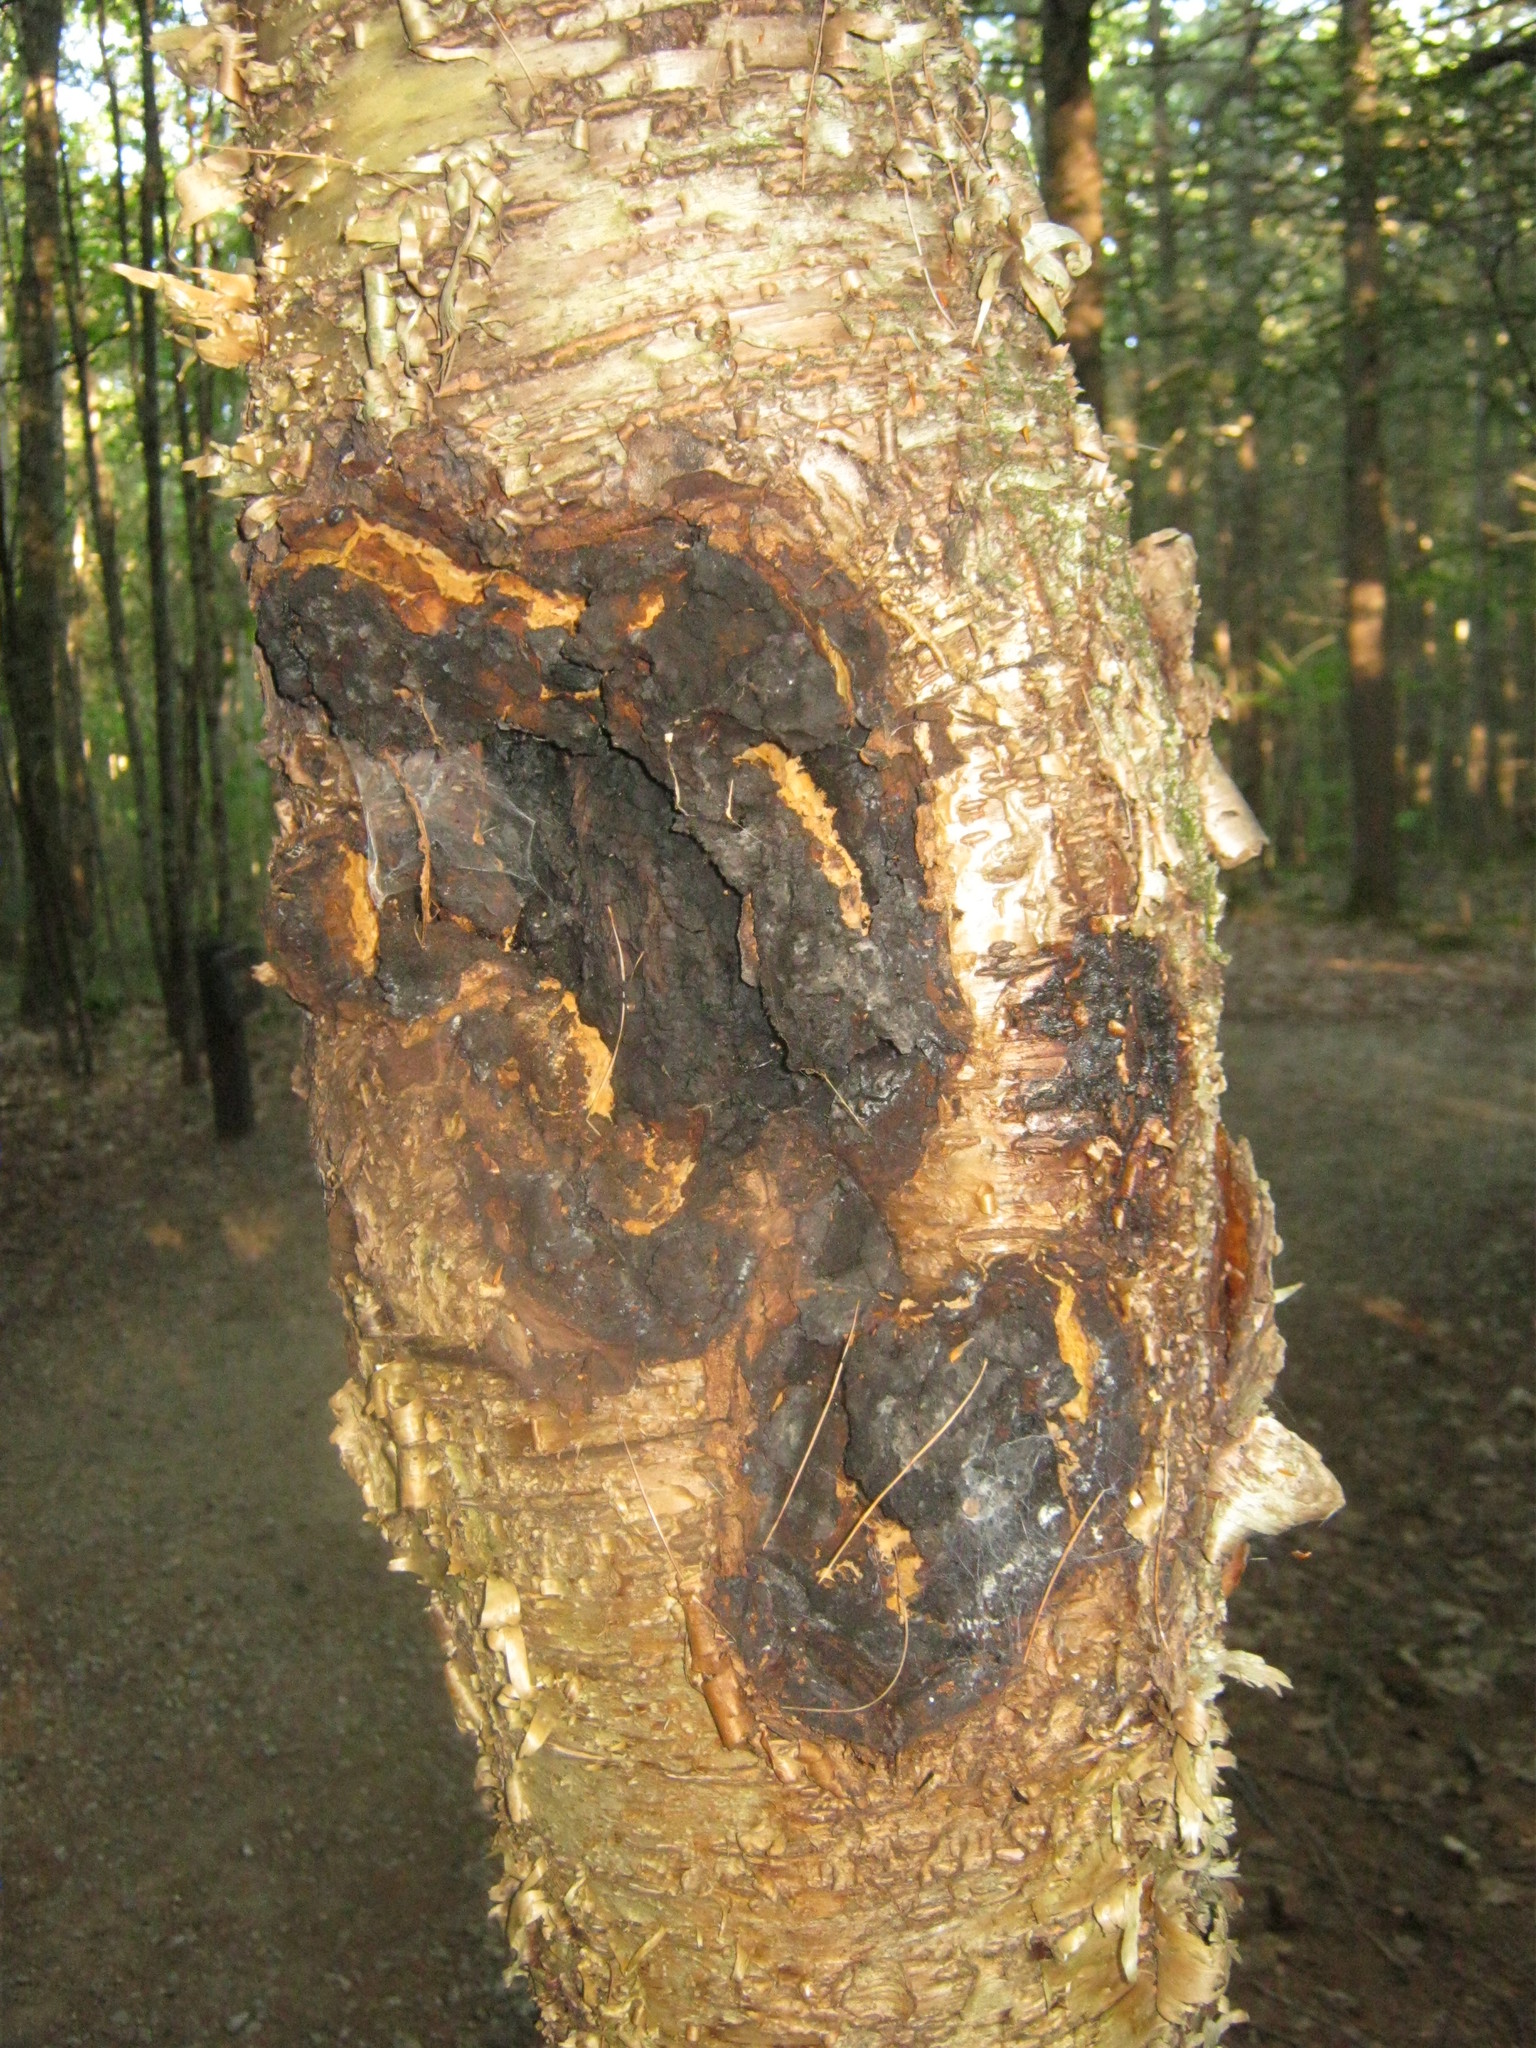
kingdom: Fungi
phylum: Basidiomycota
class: Agaricomycetes
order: Hymenochaetales
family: Hymenochaetaceae
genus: Inonotus
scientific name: Inonotus obliquus
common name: Chaga
